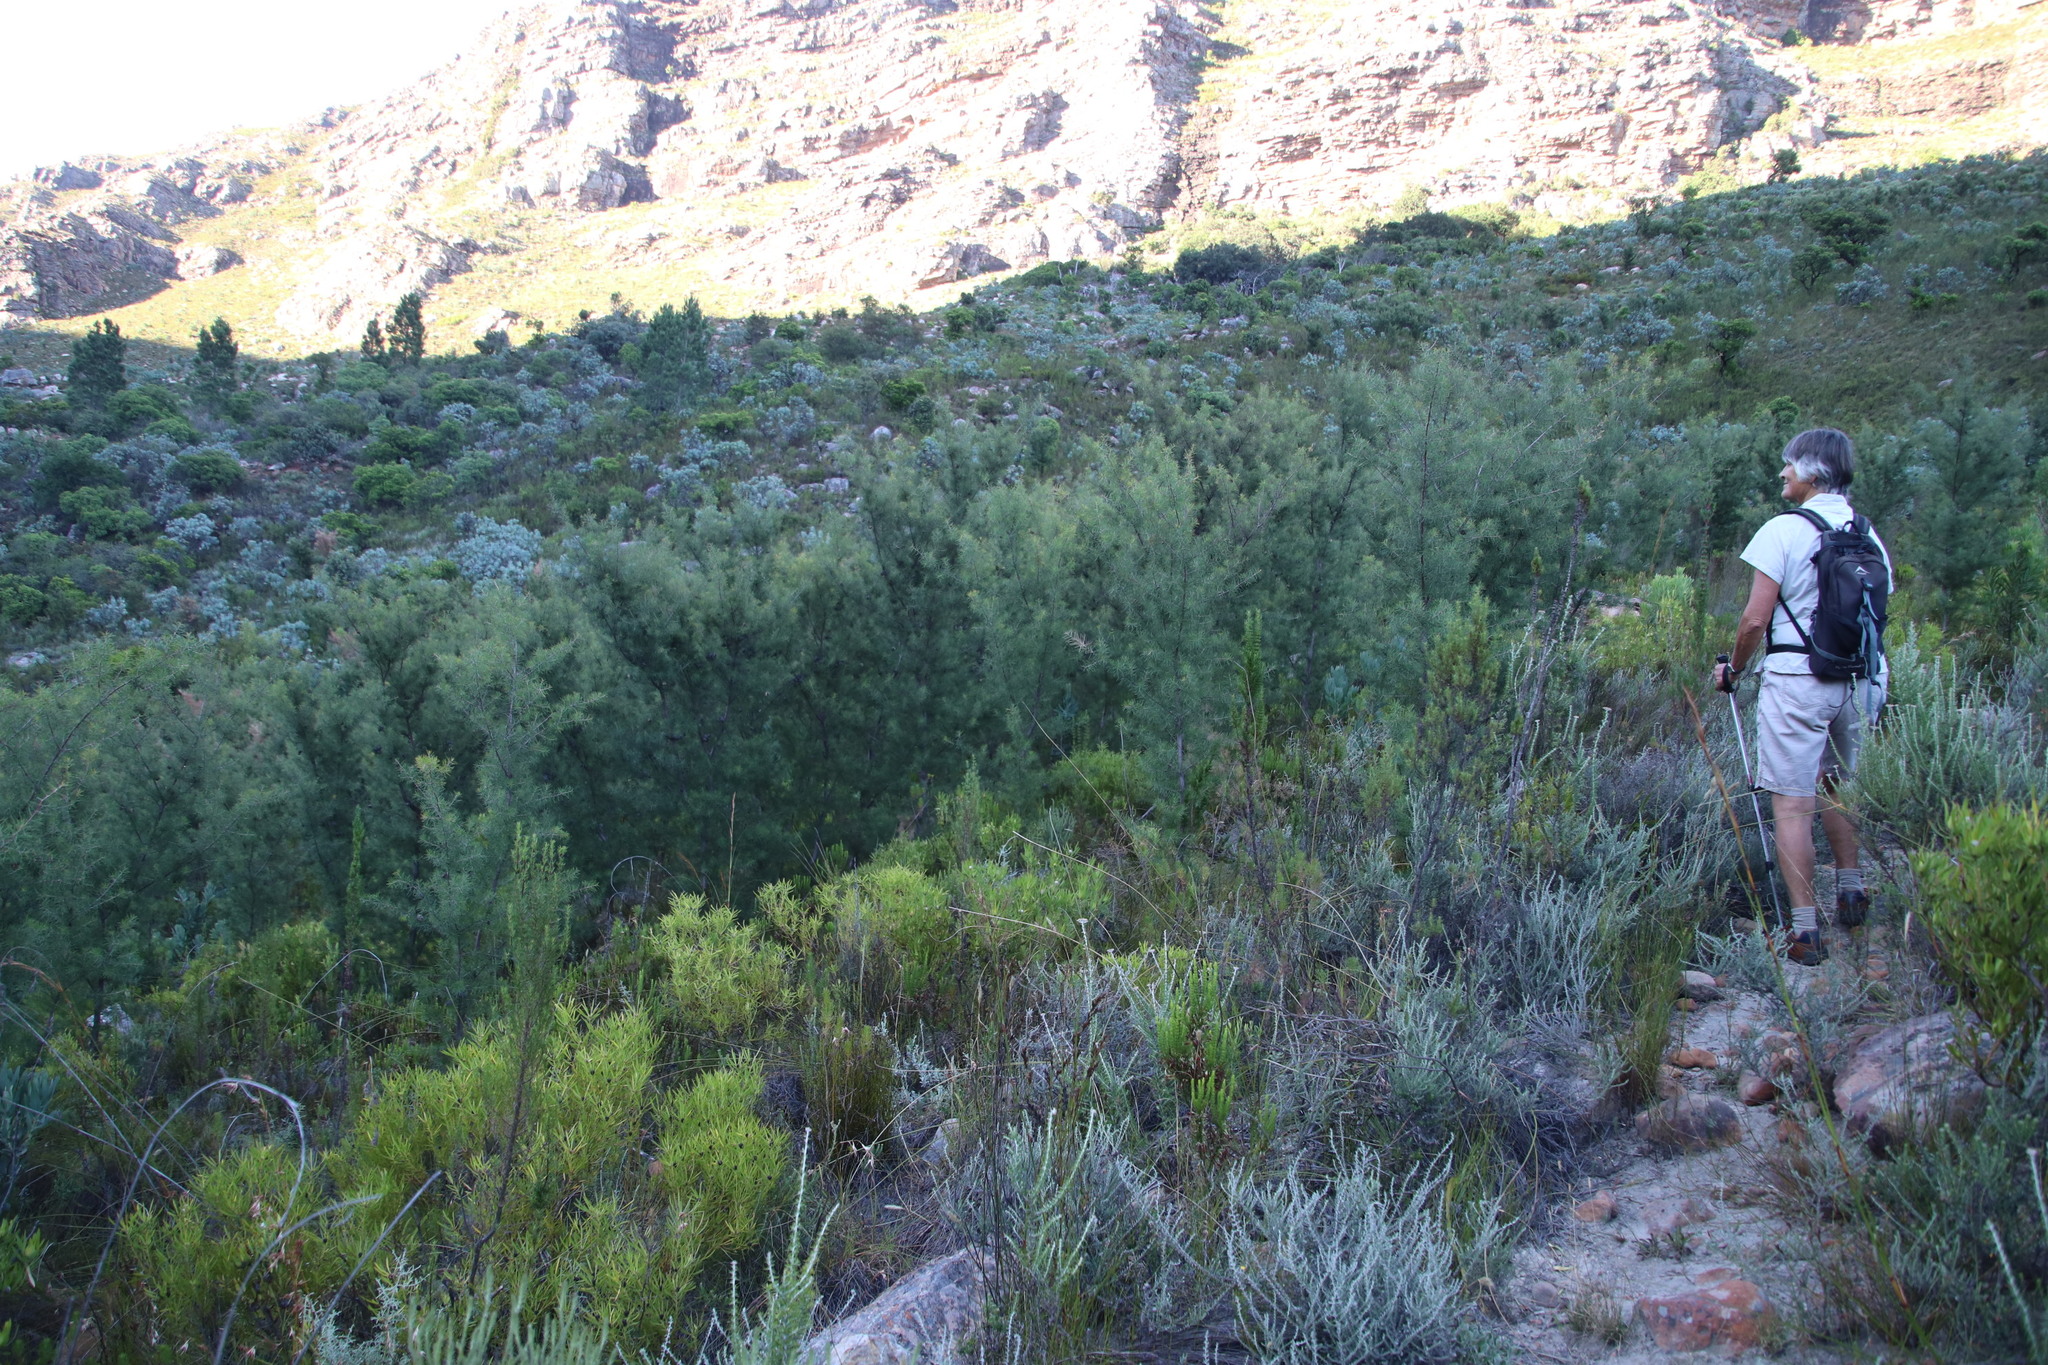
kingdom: Plantae
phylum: Tracheophyta
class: Magnoliopsida
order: Proteales
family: Proteaceae
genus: Hakea
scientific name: Hakea sericea
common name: Needle bush
